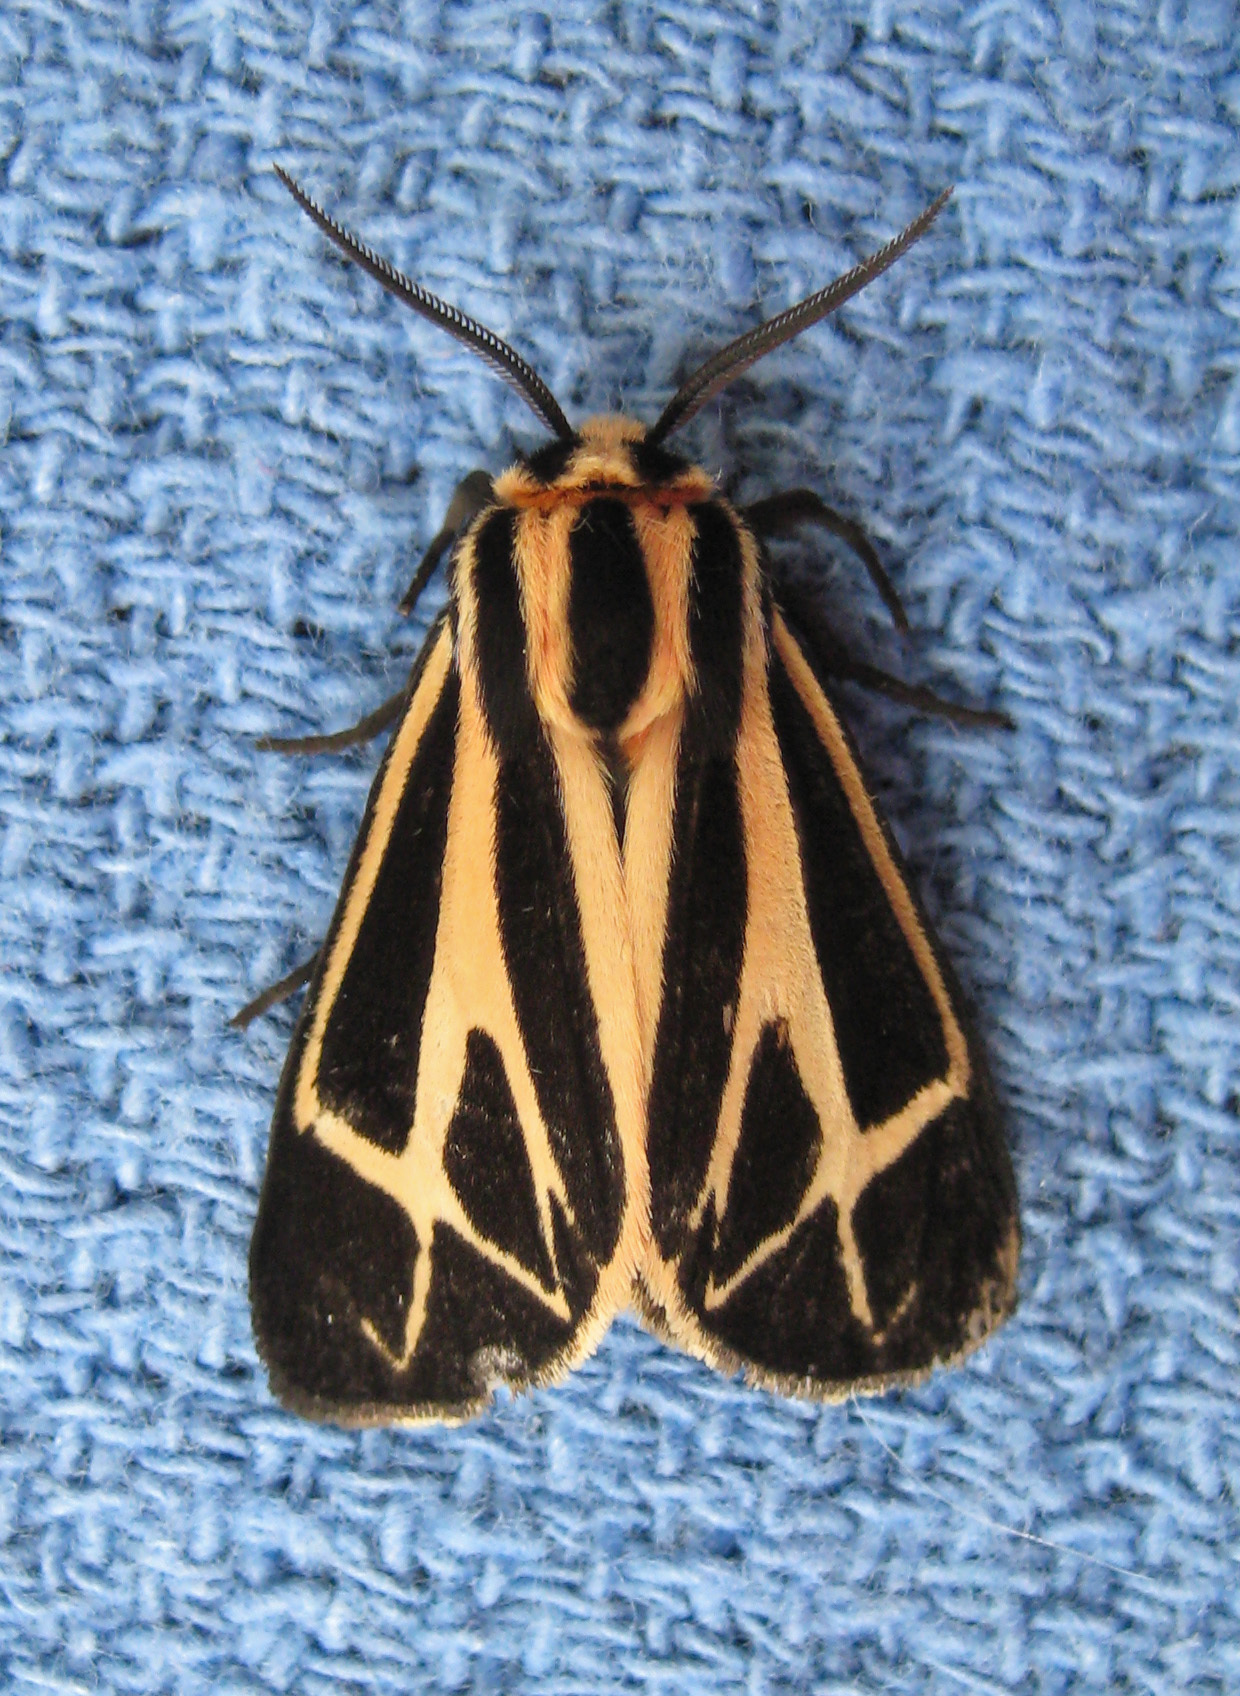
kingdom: Animalia
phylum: Arthropoda
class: Insecta
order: Lepidoptera
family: Erebidae
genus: Apantesis
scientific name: Apantesis phalerata
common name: Harnessed tiger moth
